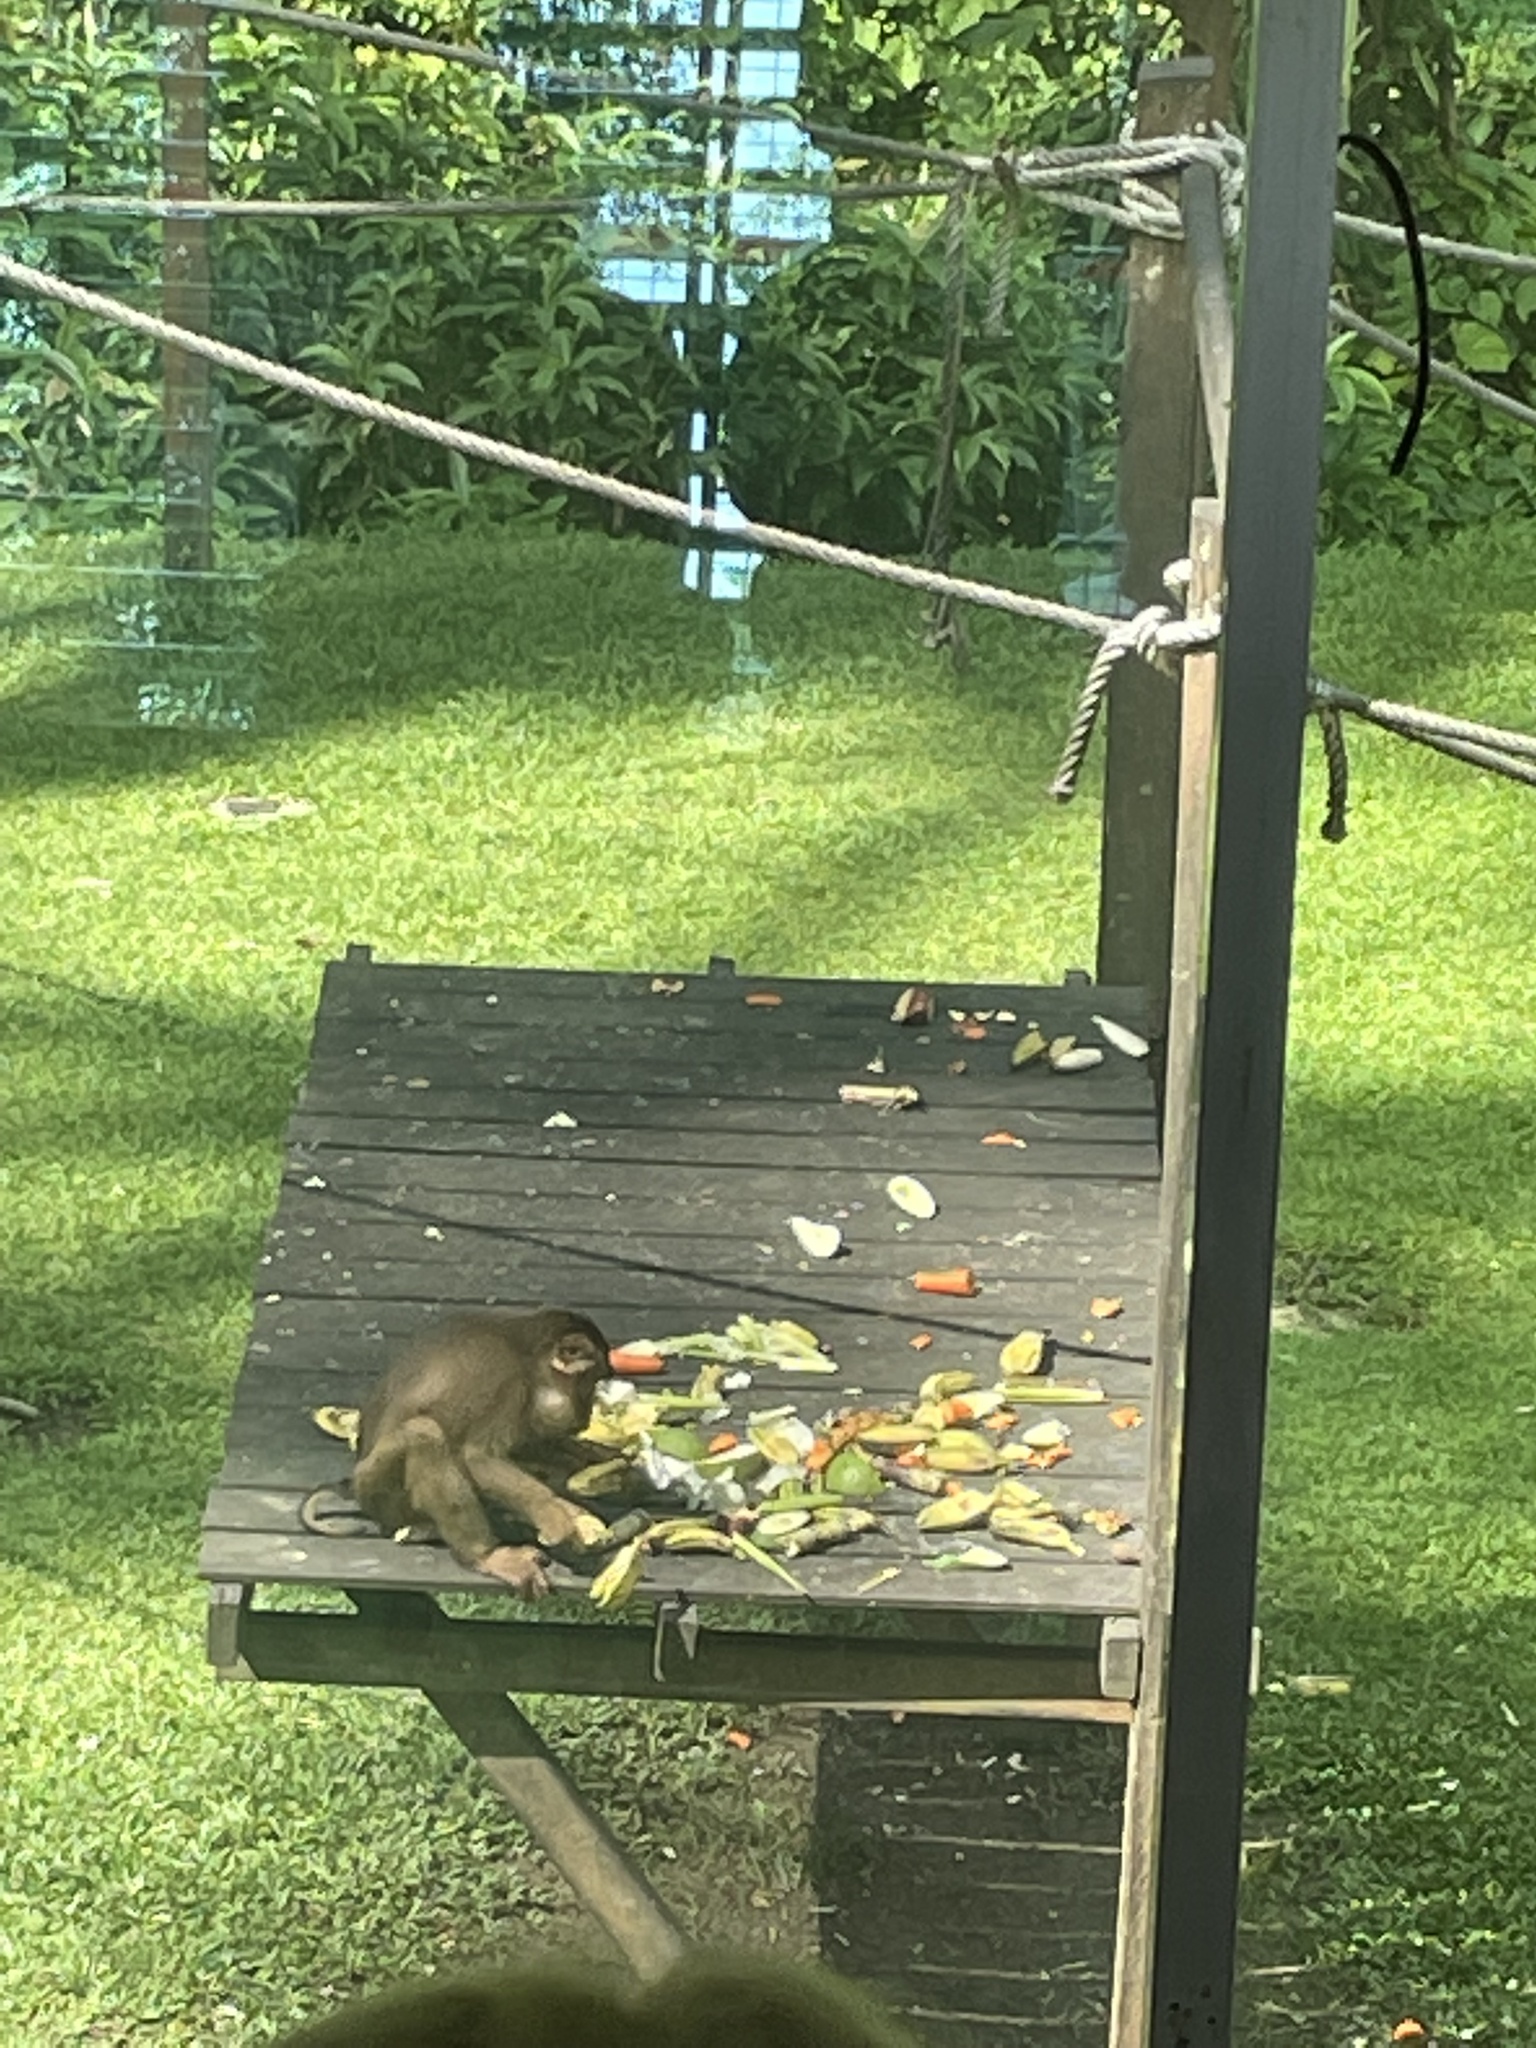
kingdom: Animalia
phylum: Chordata
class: Mammalia
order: Primates
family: Cercopithecidae
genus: Macaca
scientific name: Macaca nemestrina
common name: Southern pig-tailed macaque
